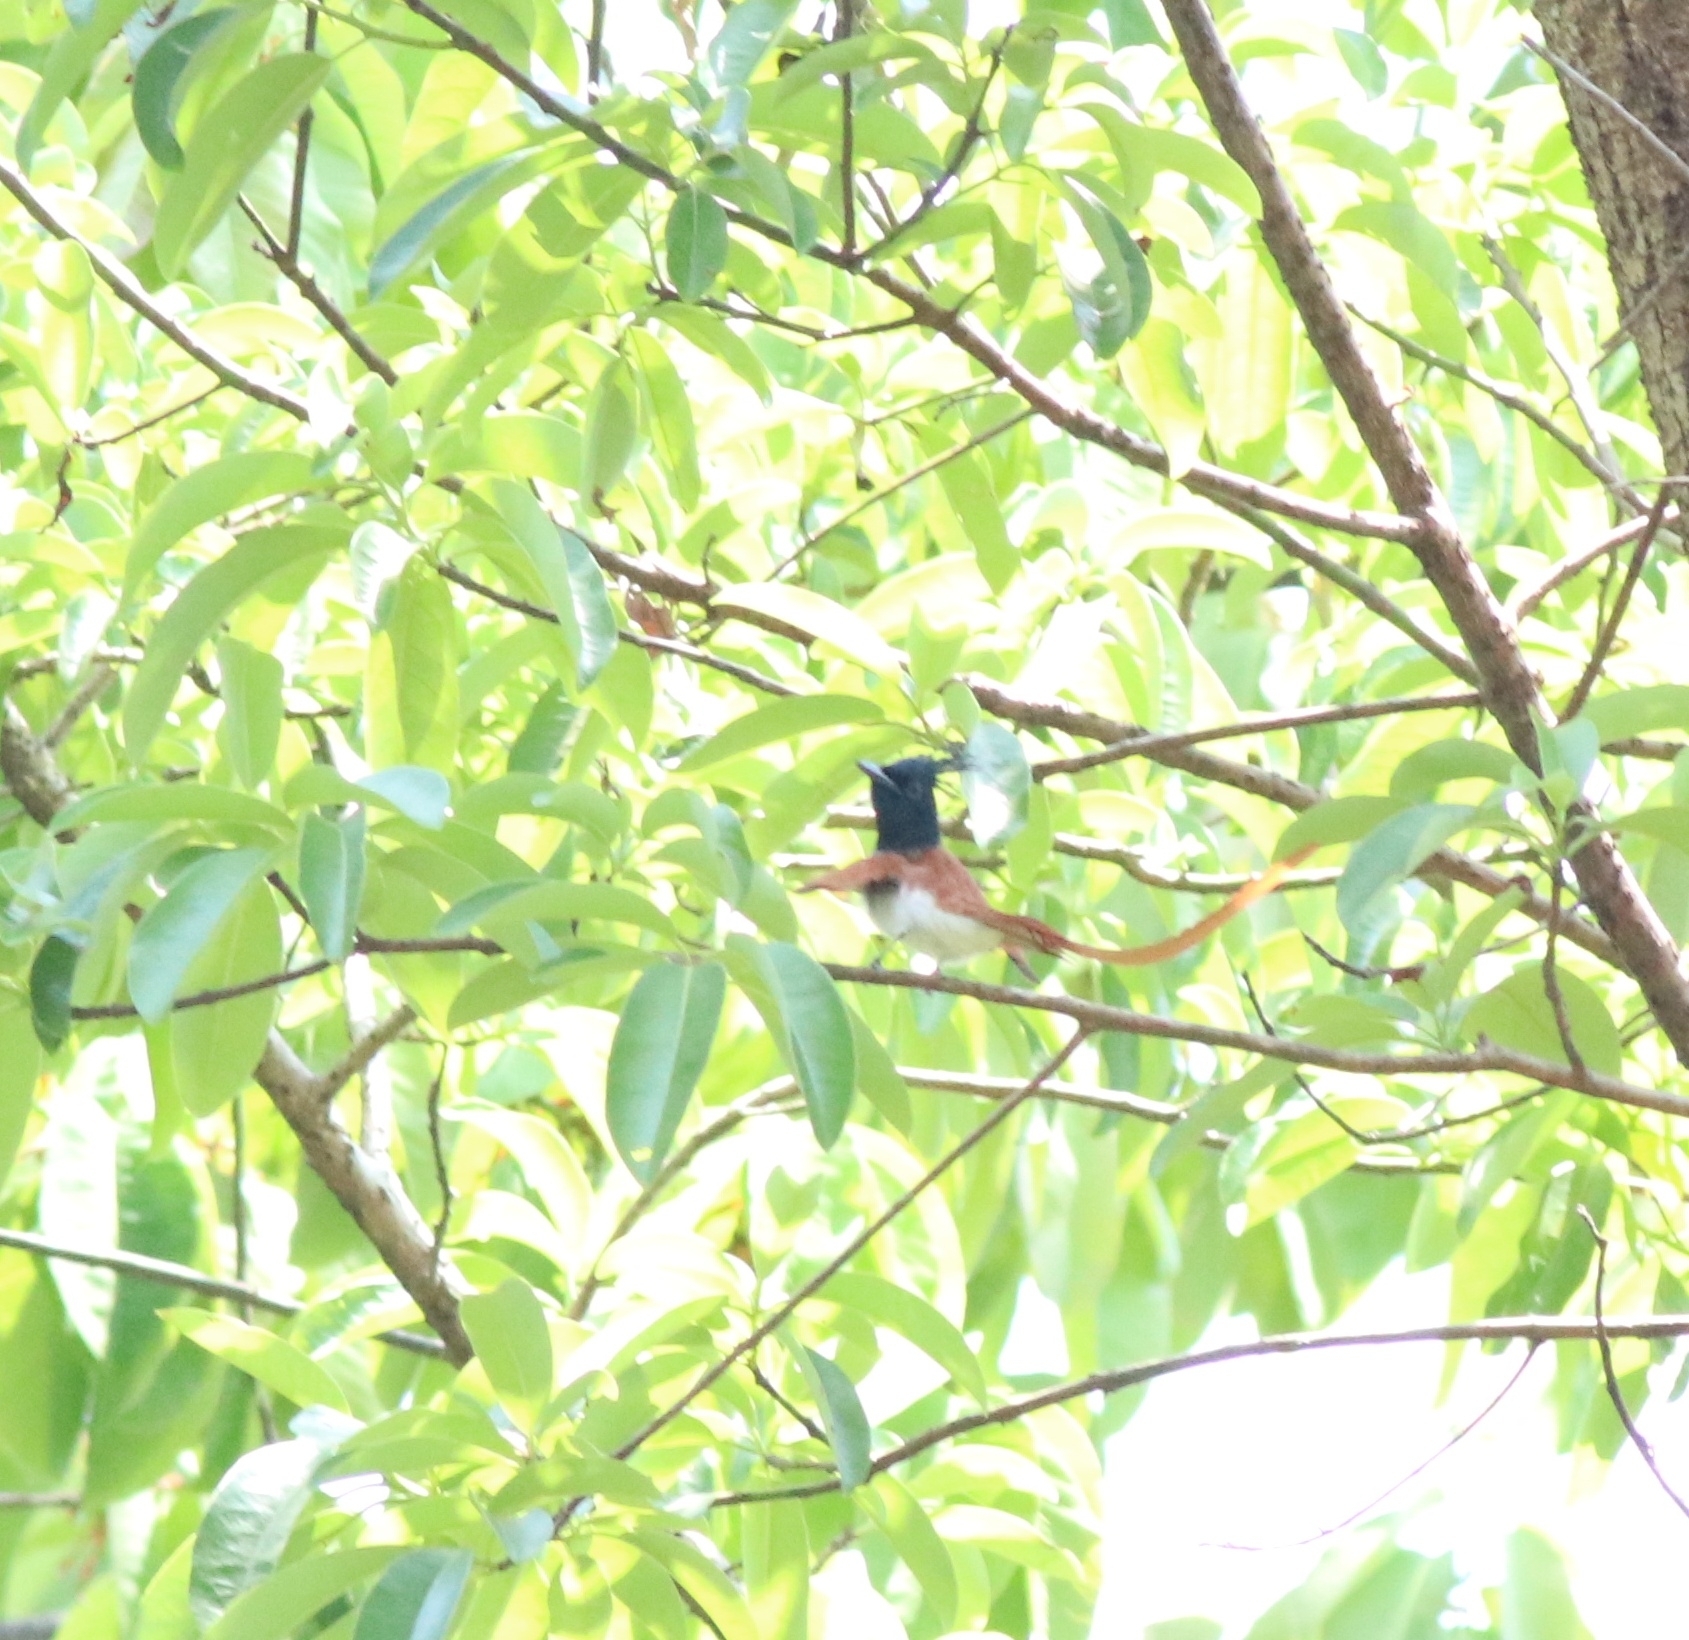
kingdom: Animalia
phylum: Chordata
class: Aves
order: Passeriformes
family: Monarchidae
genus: Terpsiphone
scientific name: Terpsiphone paradisi
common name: Indian paradise flycatcher
